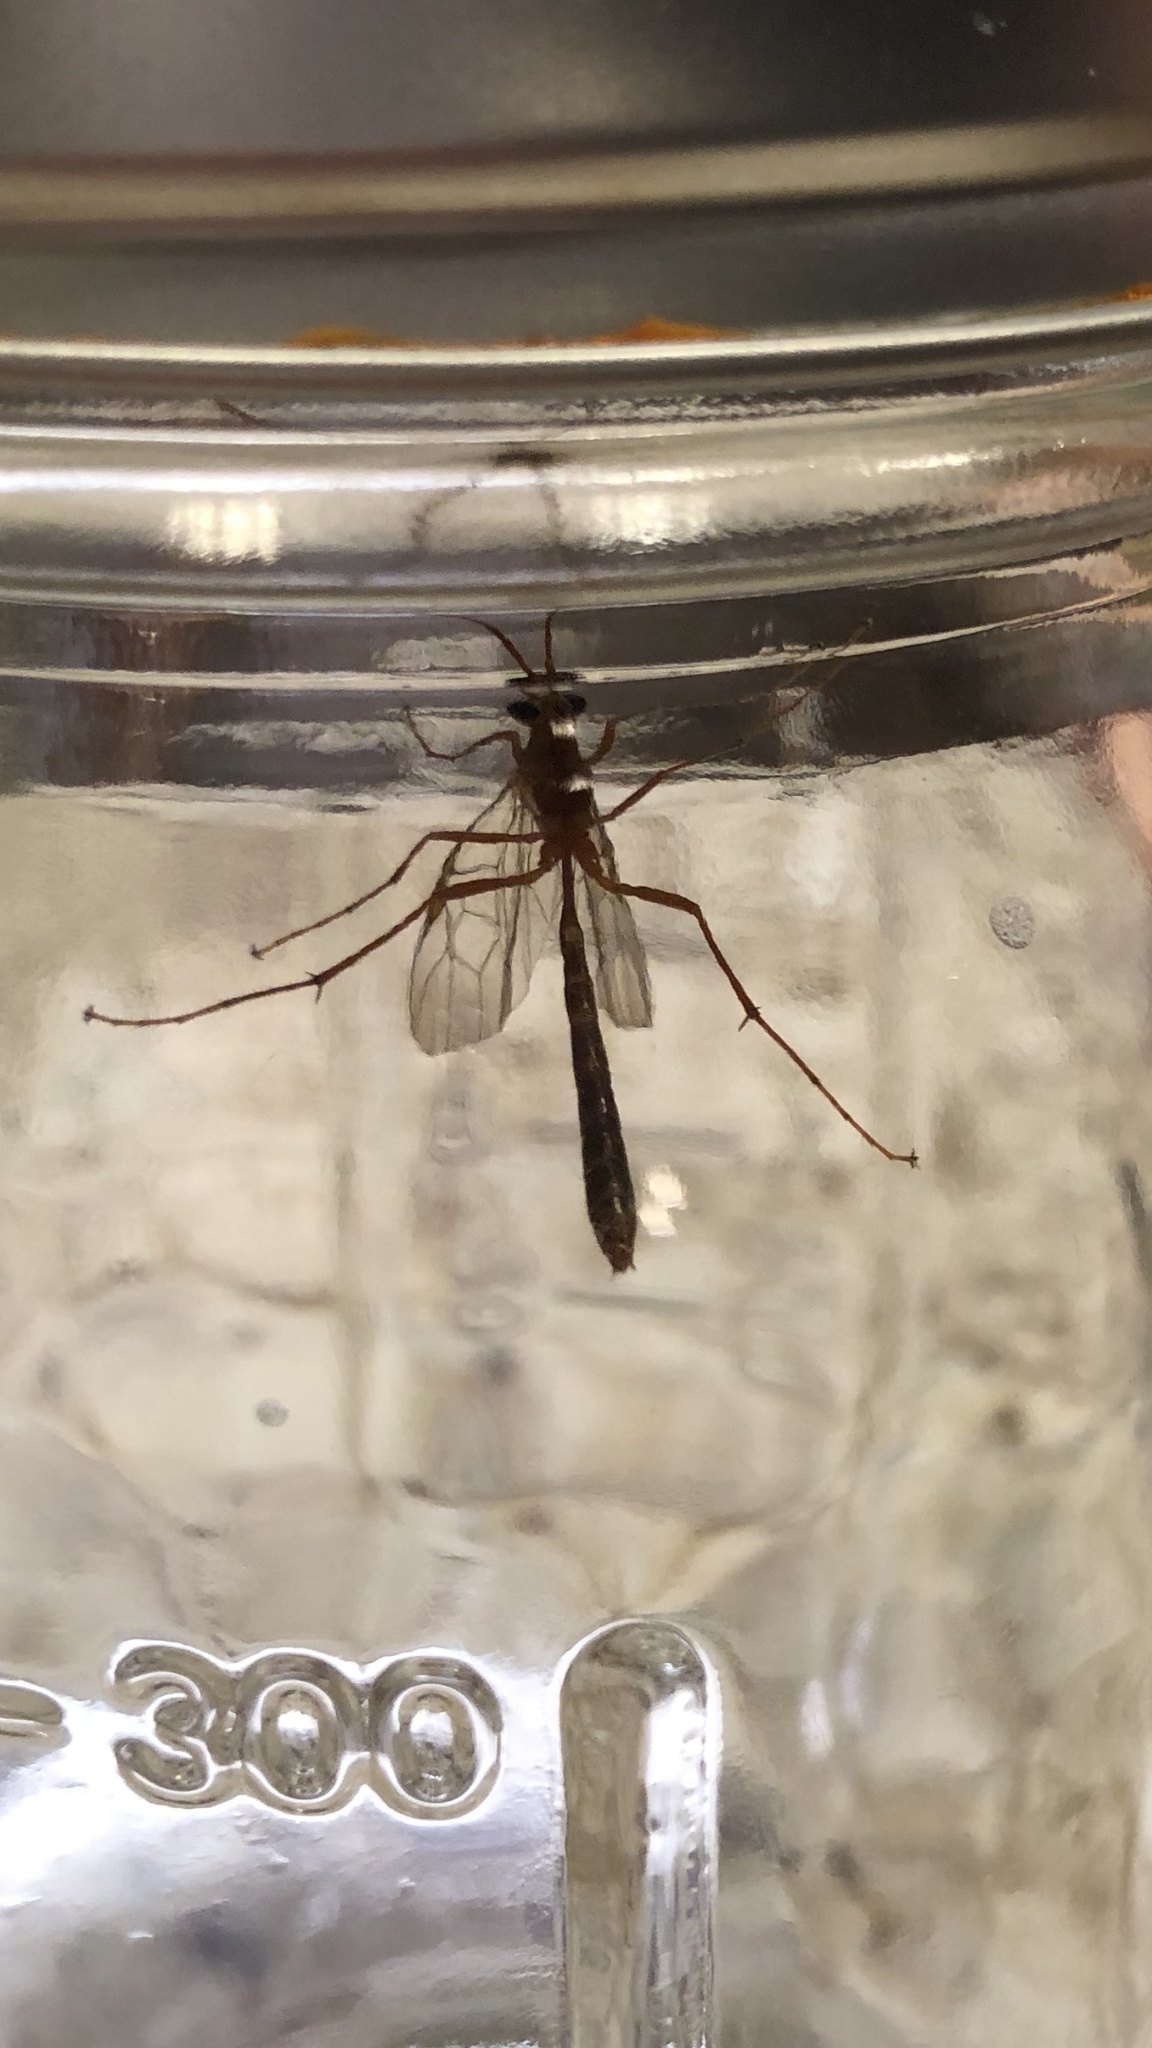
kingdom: Animalia
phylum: Arthropoda
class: Insecta
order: Hymenoptera
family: Ichneumonidae
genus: Ophion
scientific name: Ophion
